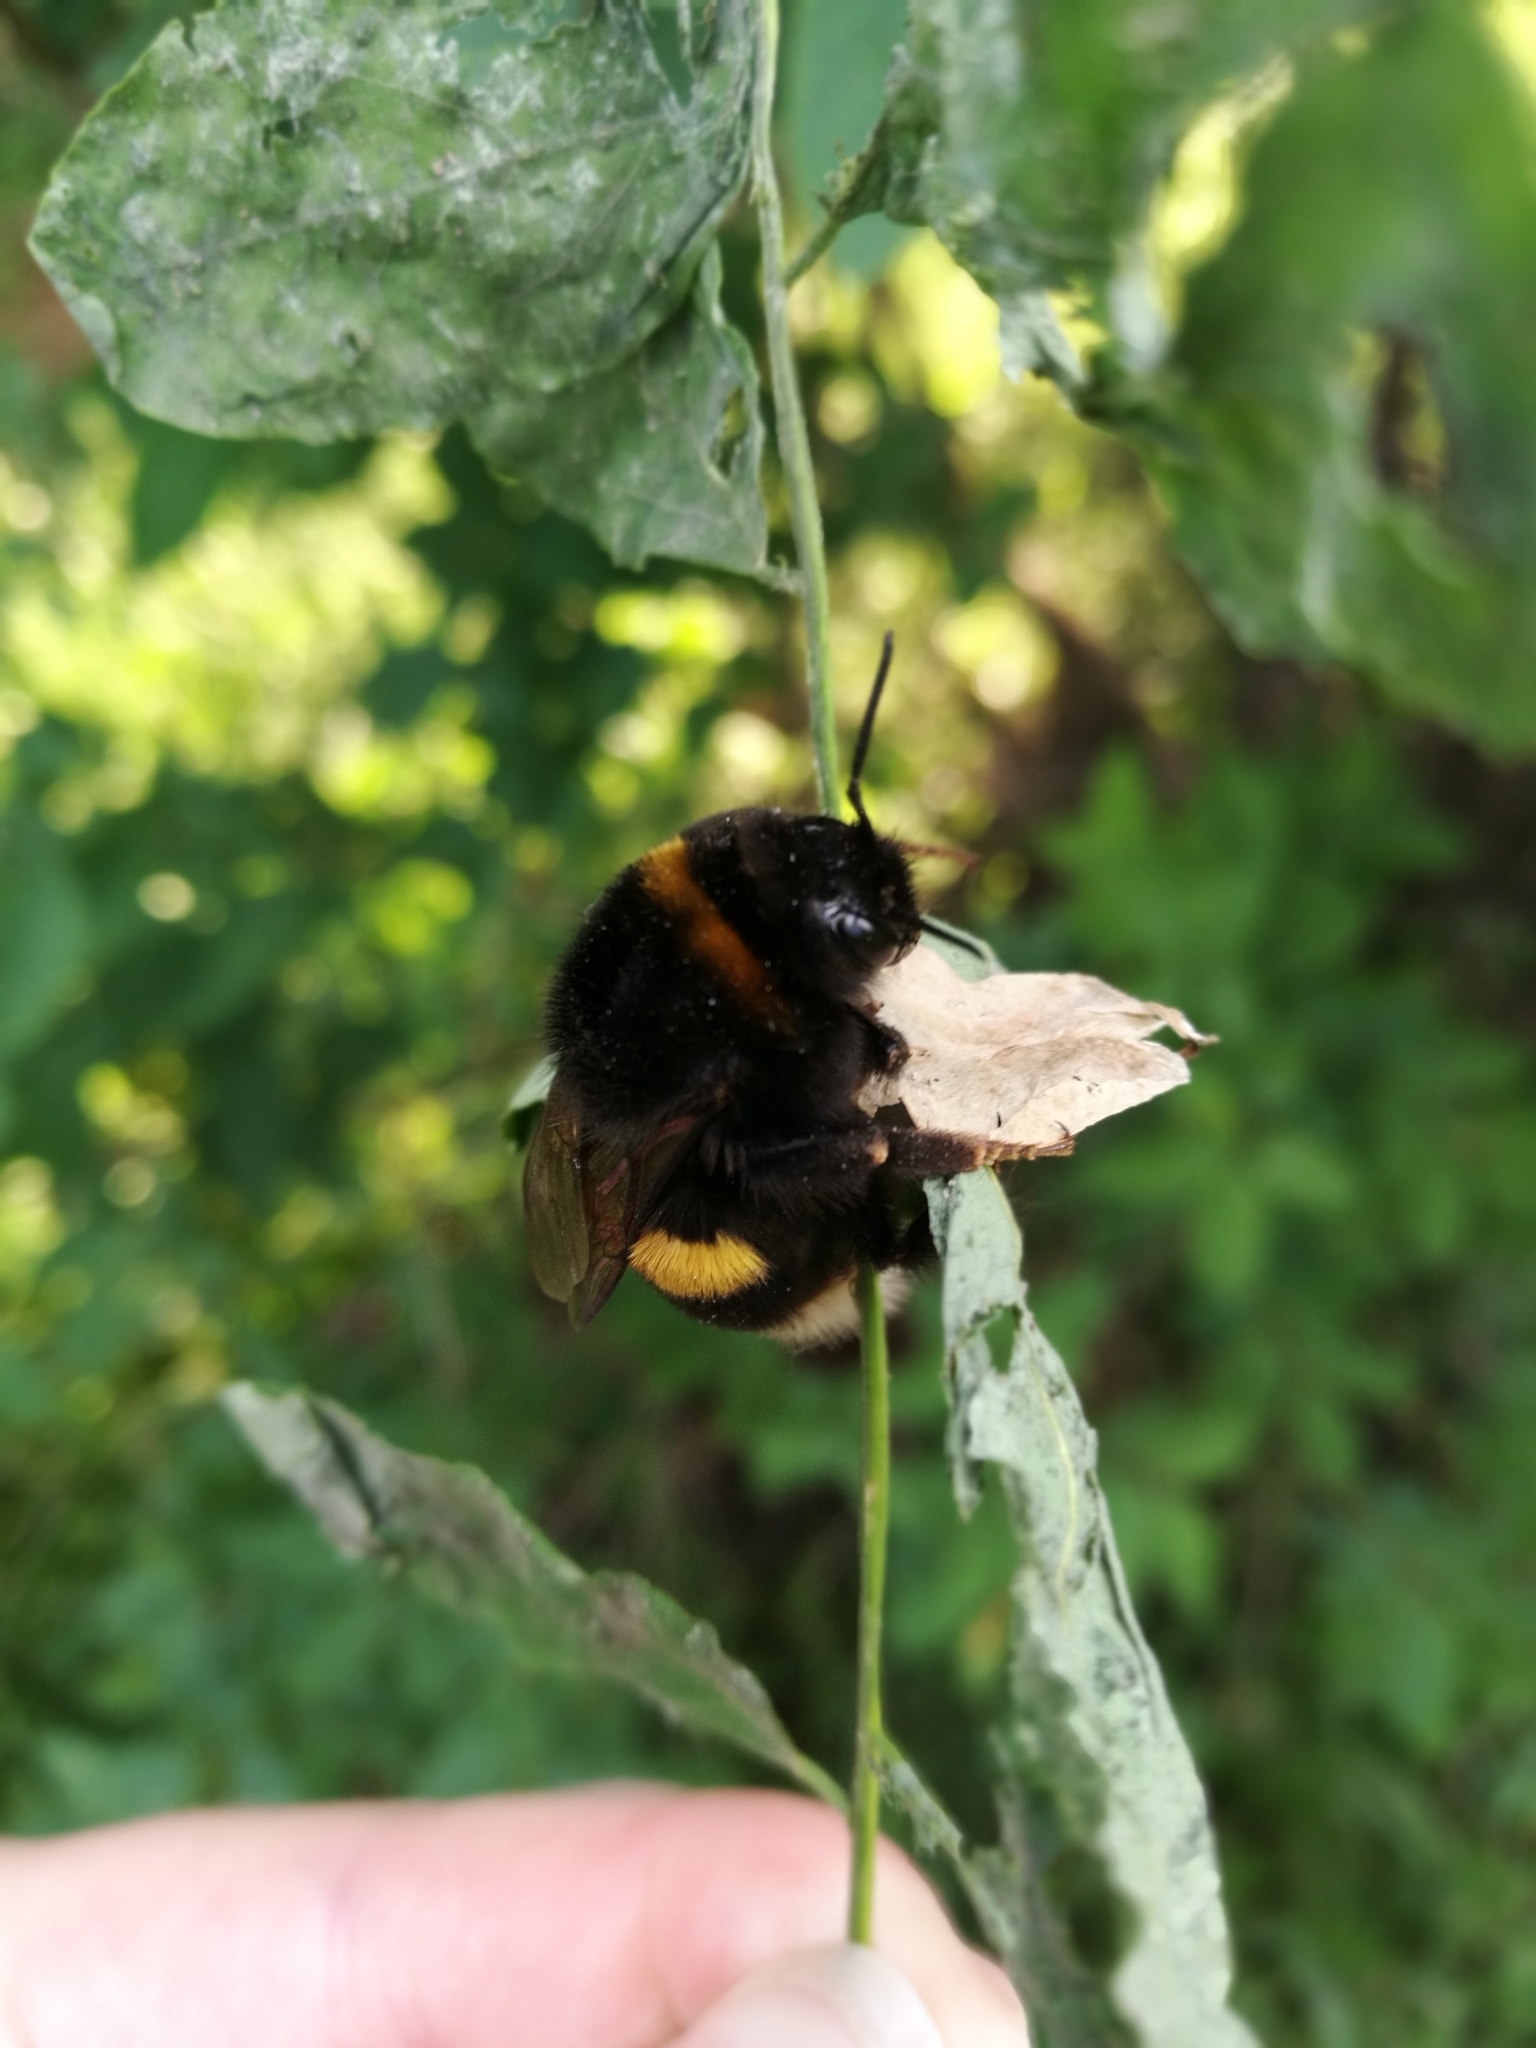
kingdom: Animalia
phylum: Arthropoda
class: Insecta
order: Hymenoptera
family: Apidae
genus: Bombus
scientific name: Bombus
